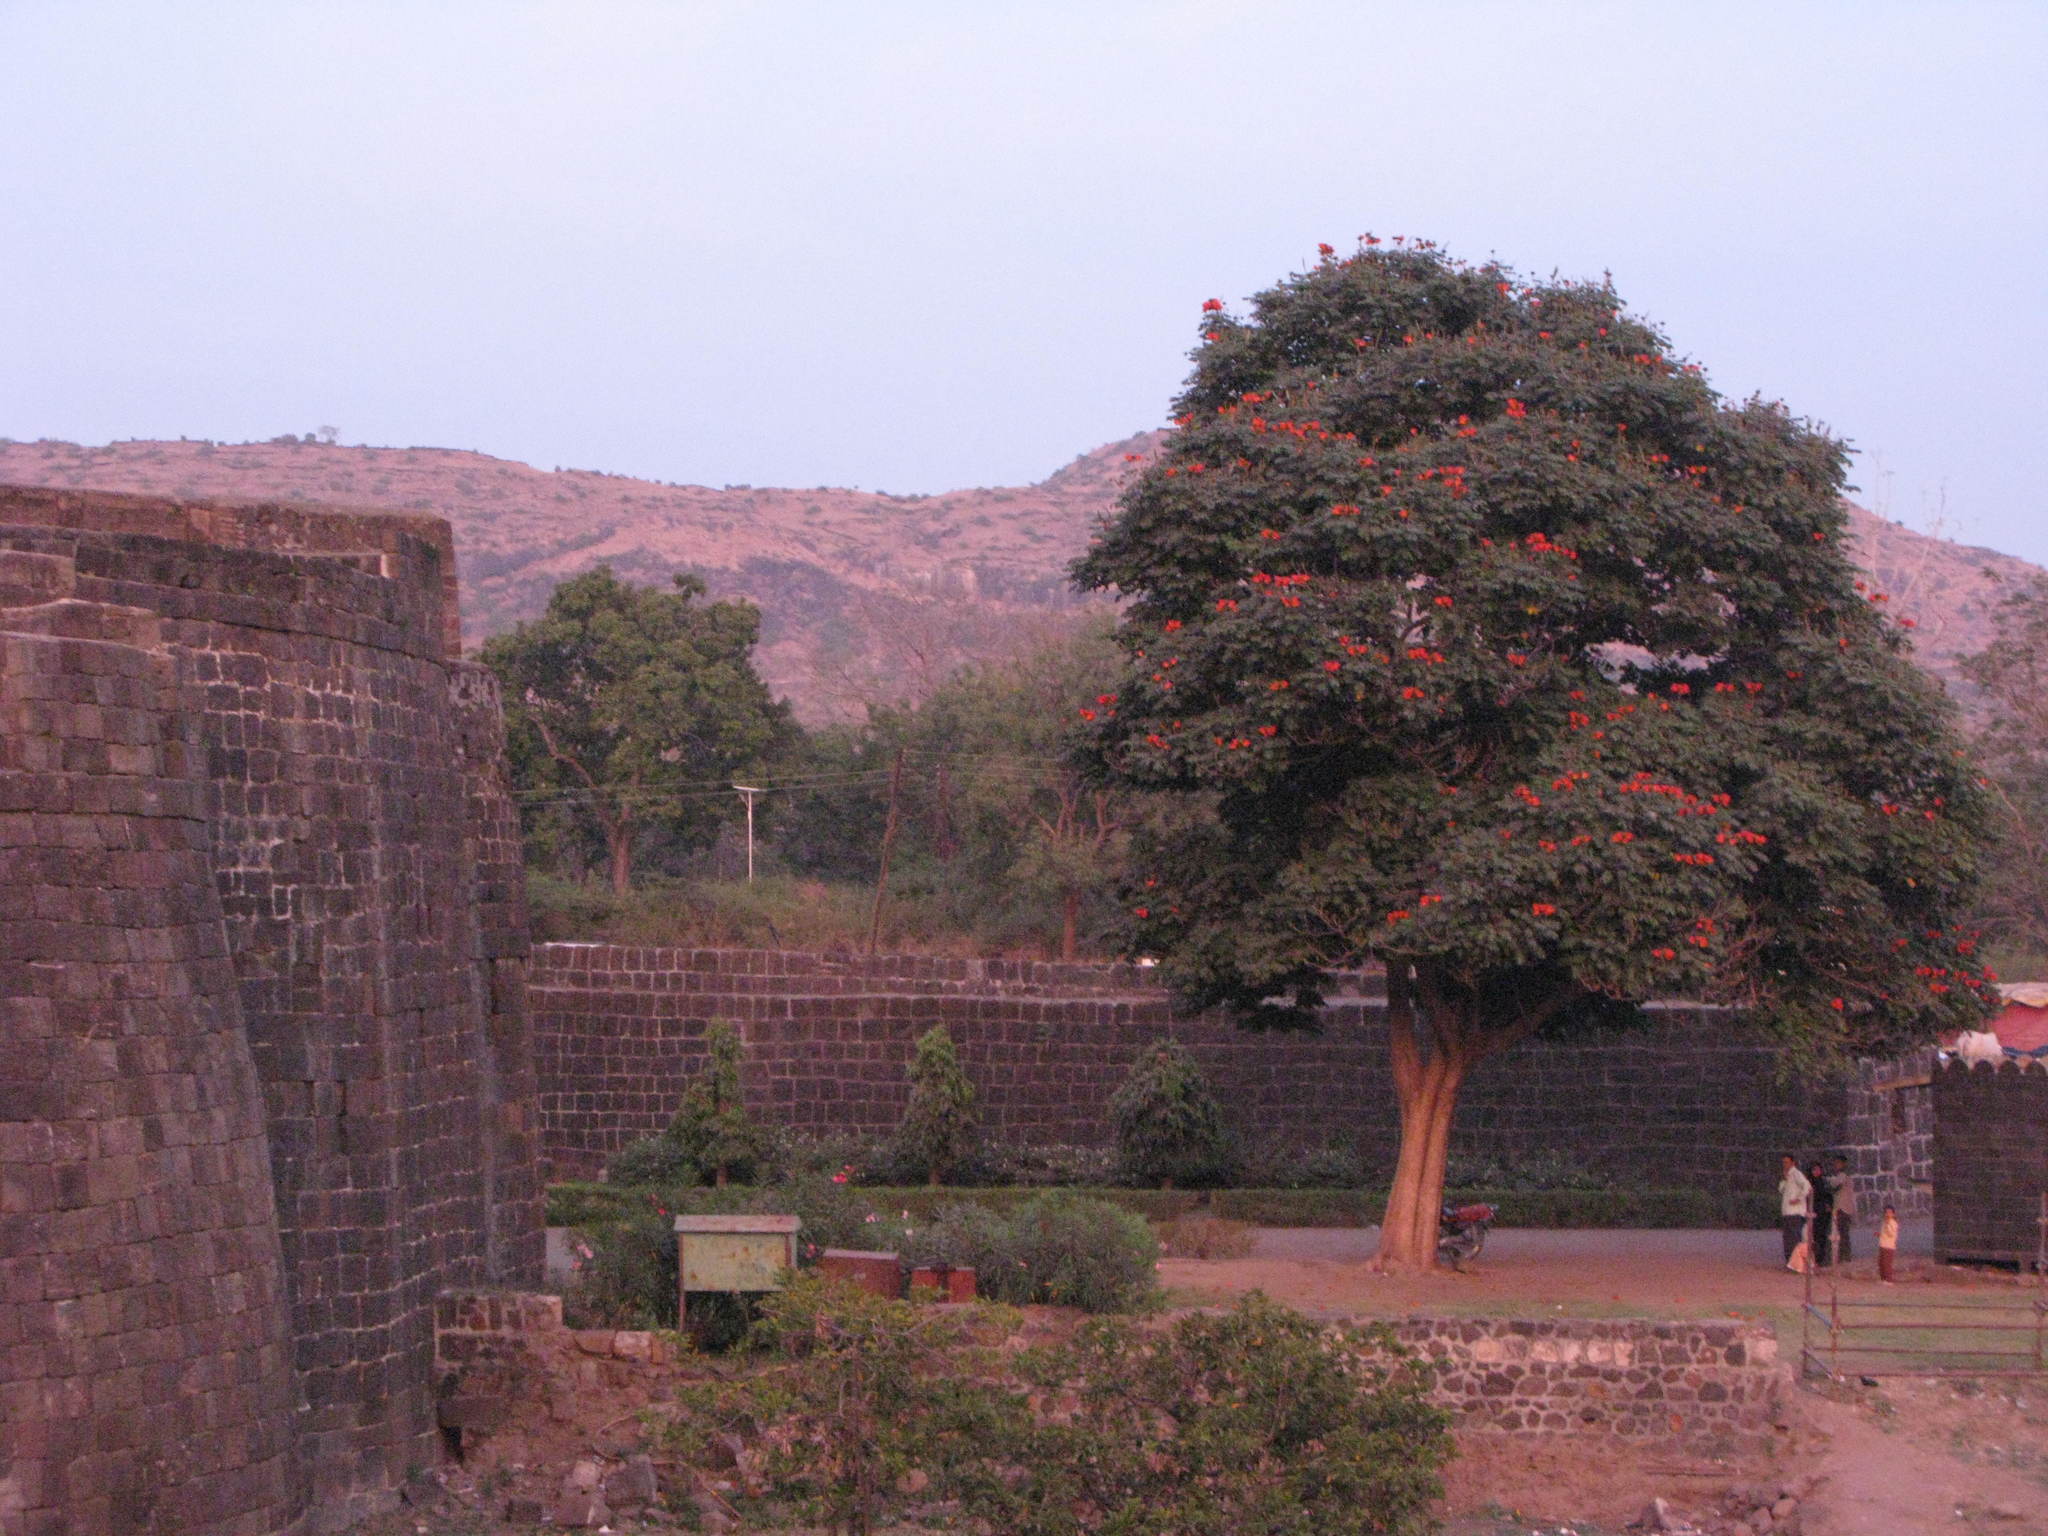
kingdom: Plantae
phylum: Tracheophyta
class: Magnoliopsida
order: Lamiales
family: Bignoniaceae
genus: Spathodea
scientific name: Spathodea campanulata
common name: African tuliptree
